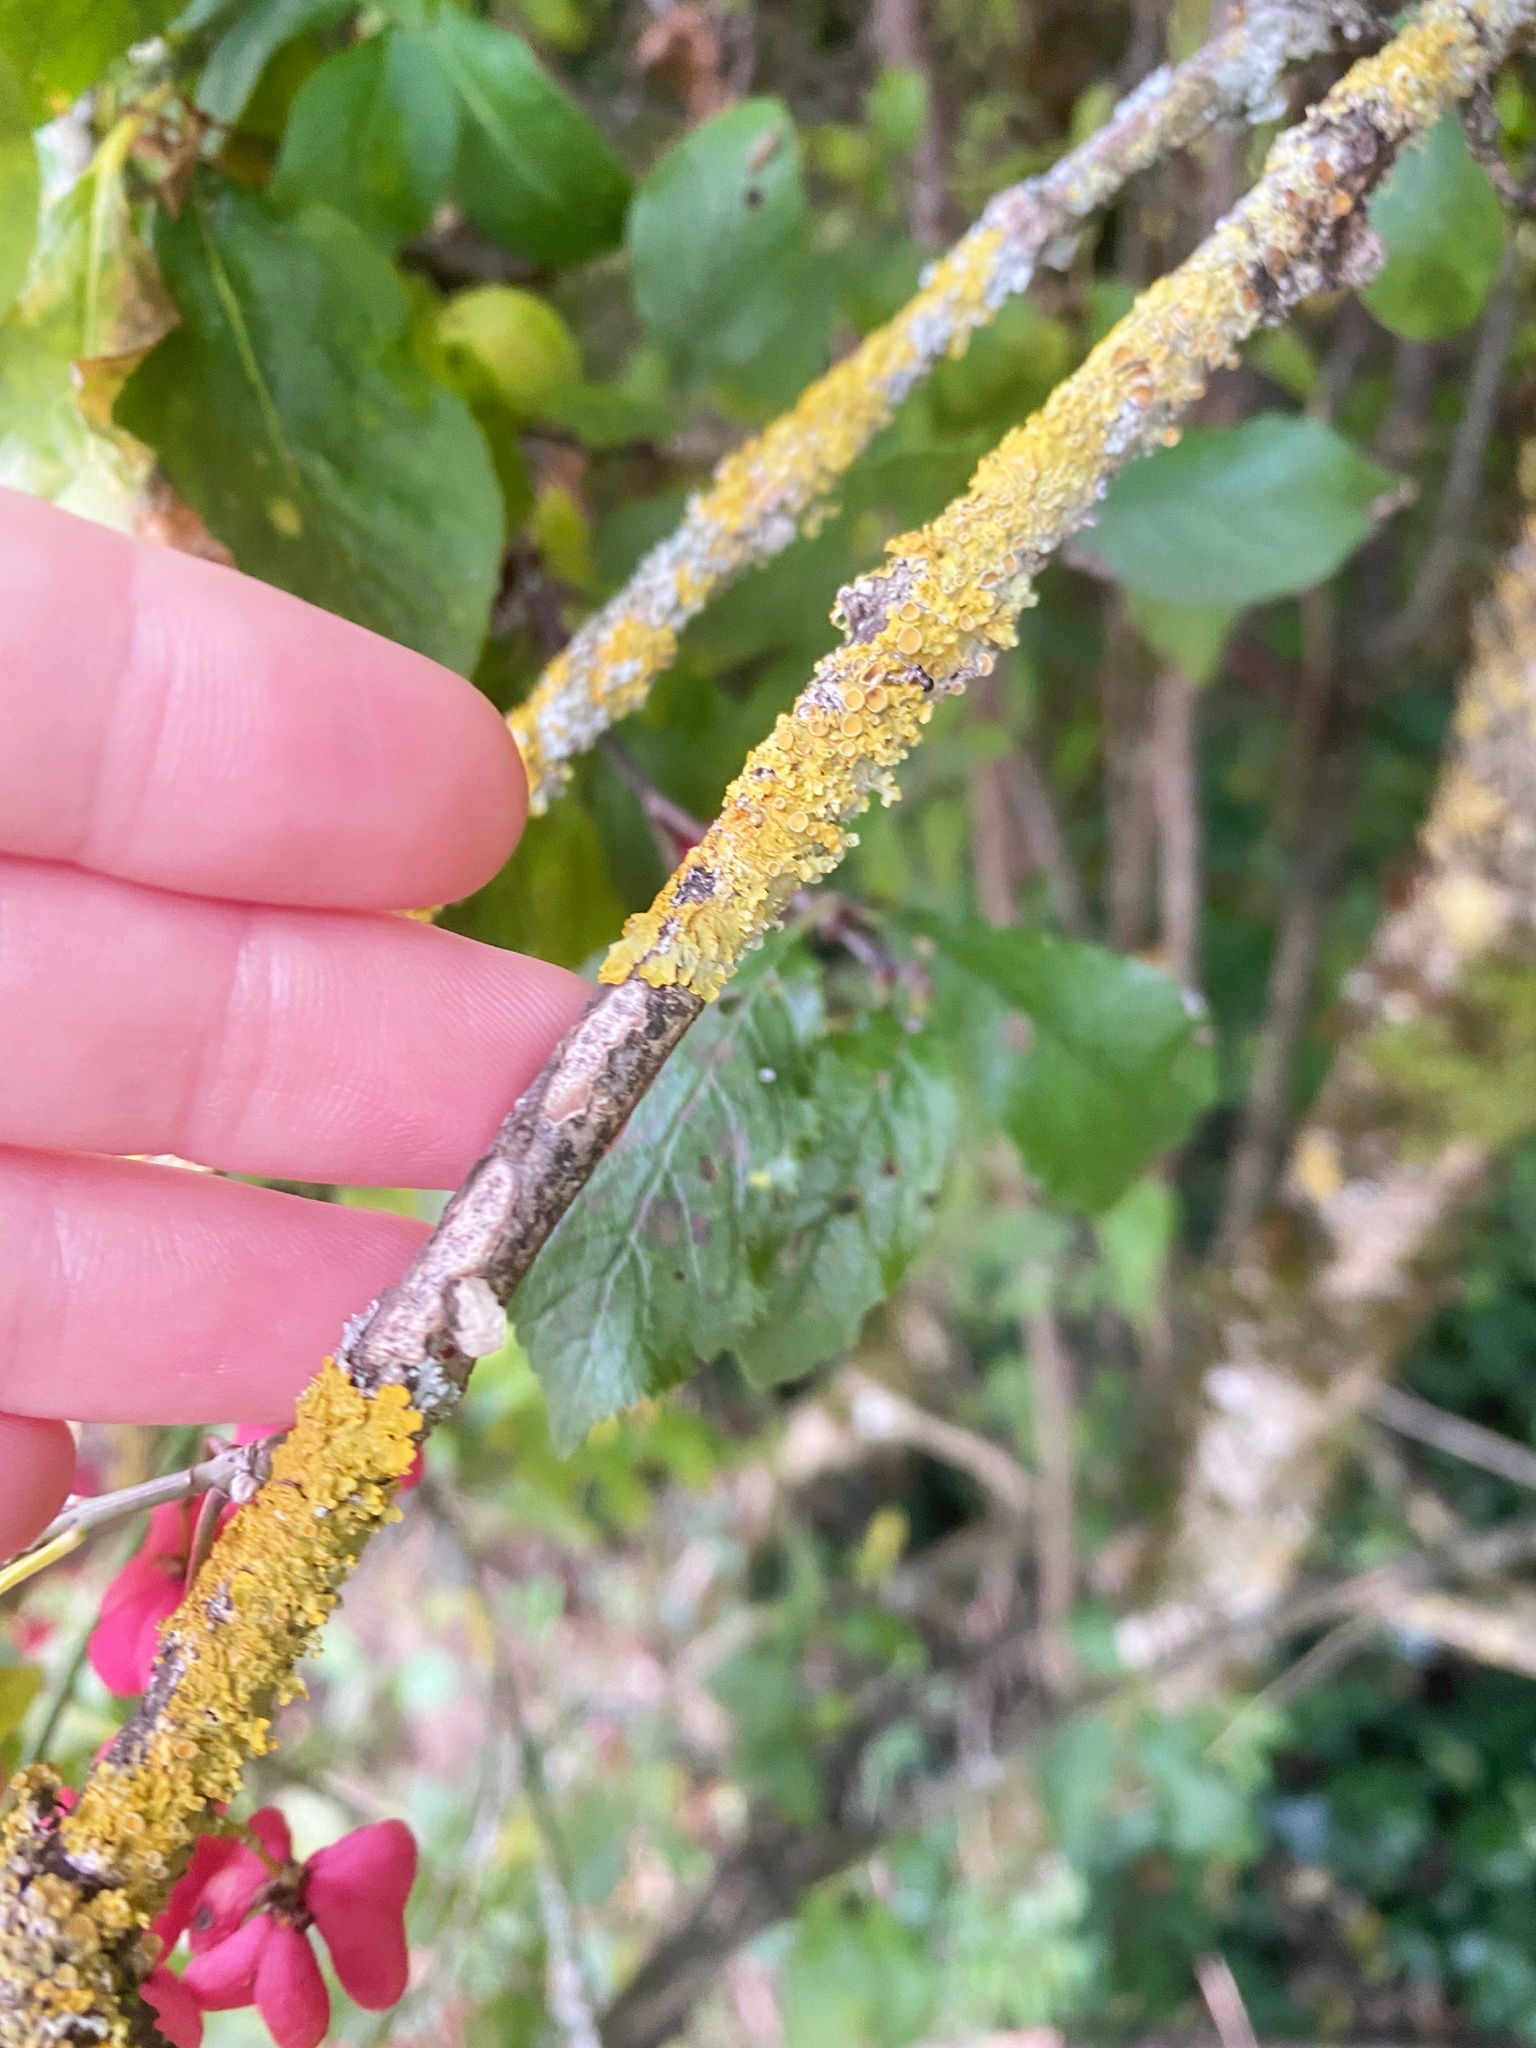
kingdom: Fungi
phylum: Ascomycota
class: Lecanoromycetes
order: Teloschistales
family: Teloschistaceae
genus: Xanthoria
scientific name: Xanthoria parietina
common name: Common orange lichen
